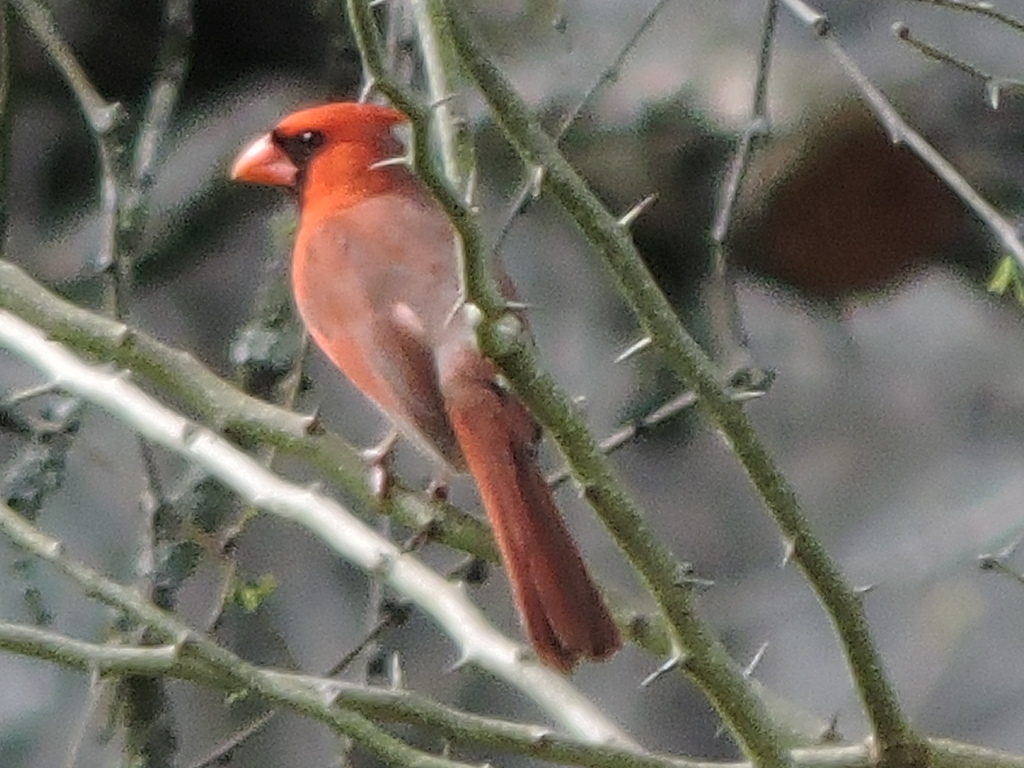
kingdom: Animalia
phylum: Chordata
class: Aves
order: Passeriformes
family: Cardinalidae
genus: Cardinalis
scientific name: Cardinalis cardinalis
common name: Northern cardinal
